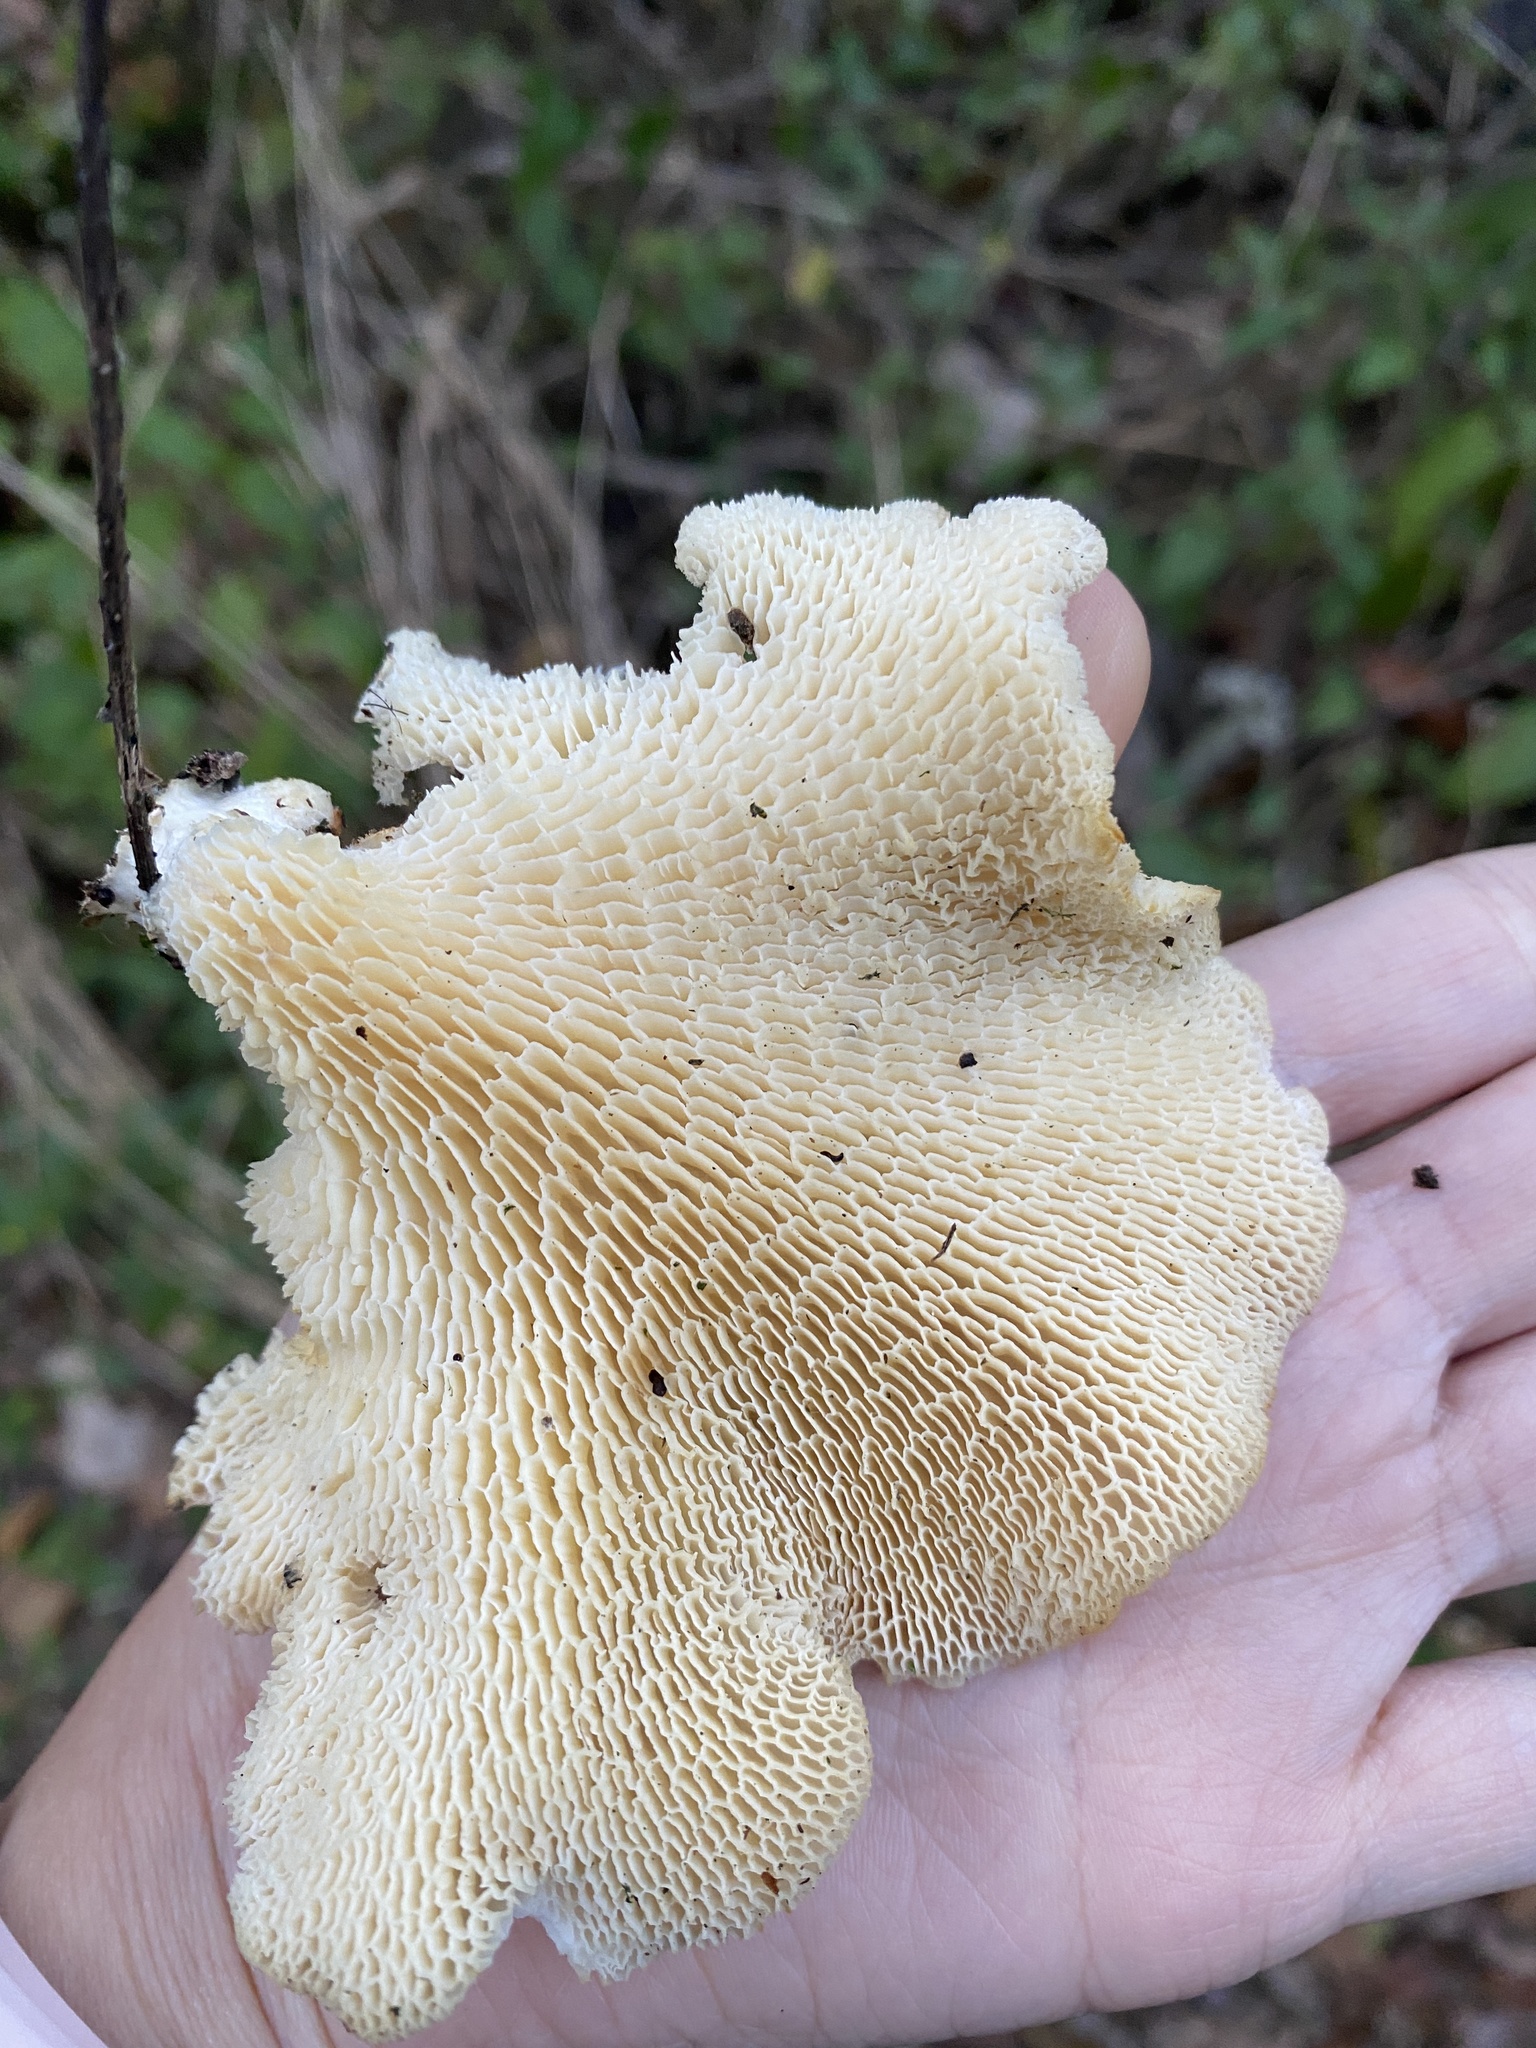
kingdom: Fungi
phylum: Basidiomycota
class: Agaricomycetes
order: Polyporales
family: Polyporaceae
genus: Favolus
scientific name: Favolus tenuiculus
